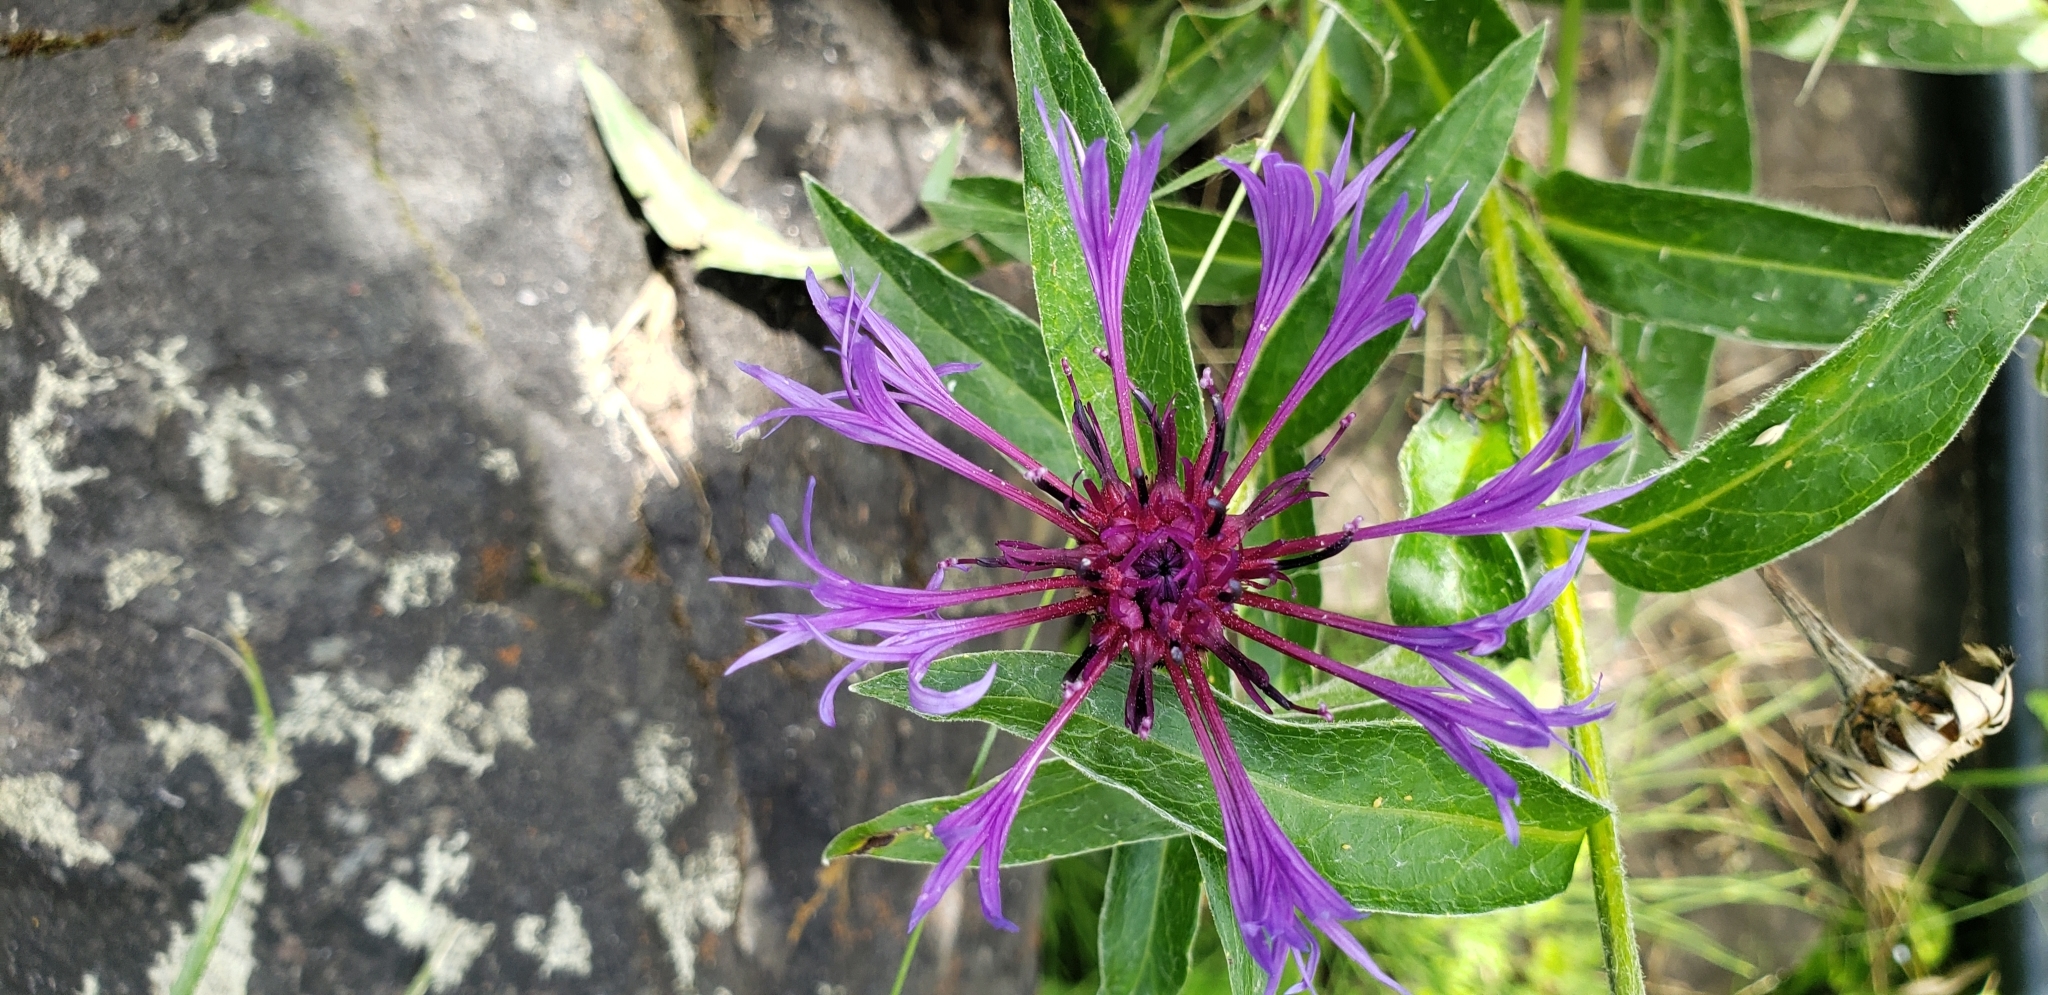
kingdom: Plantae
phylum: Tracheophyta
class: Magnoliopsida
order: Asterales
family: Asteraceae
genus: Centaurea
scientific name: Centaurea montana
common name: Perennial cornflower
